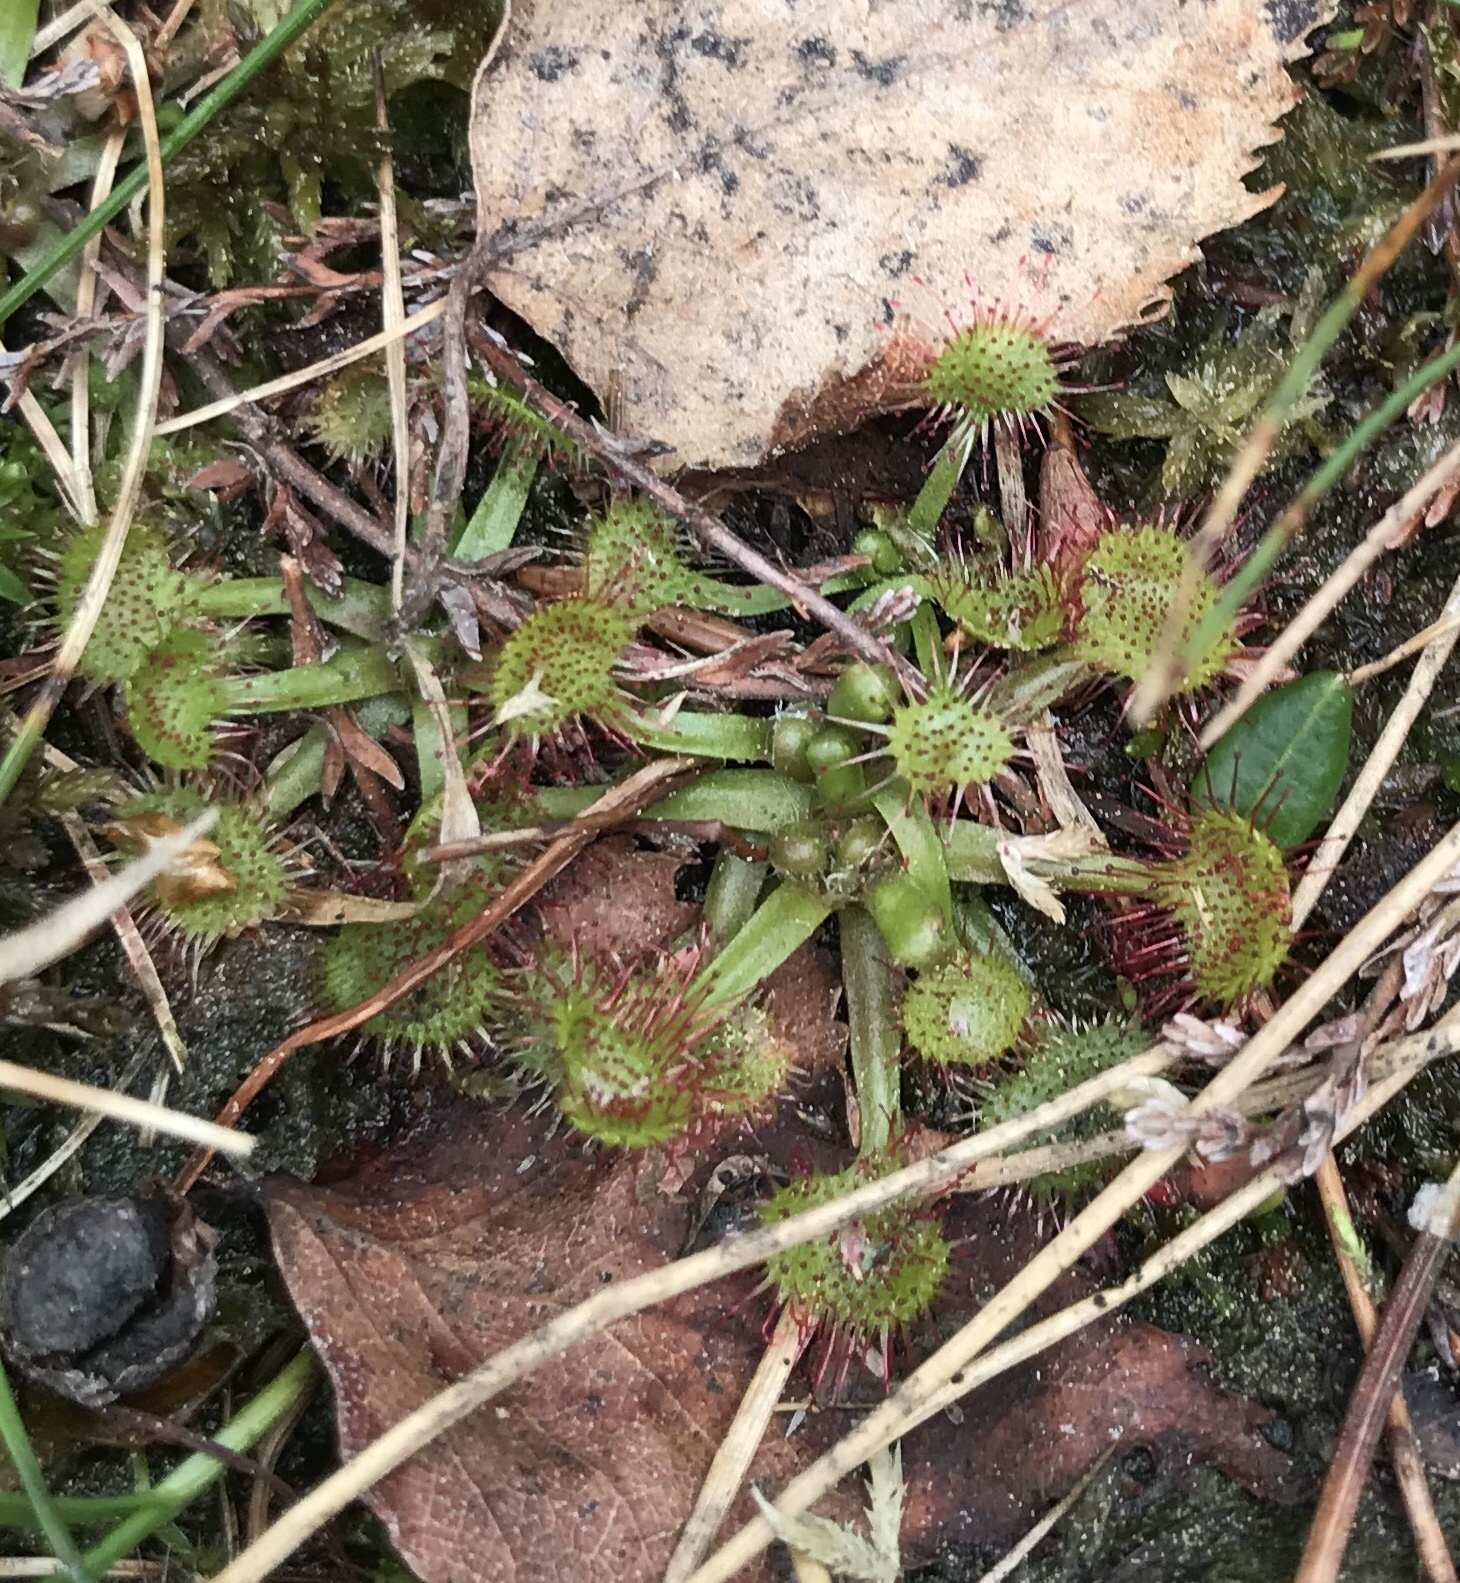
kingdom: Plantae
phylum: Tracheophyta
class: Magnoliopsida
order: Caryophyllales
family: Droseraceae
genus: Drosera
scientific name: Drosera rotundifolia
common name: Round-leaved sundew
